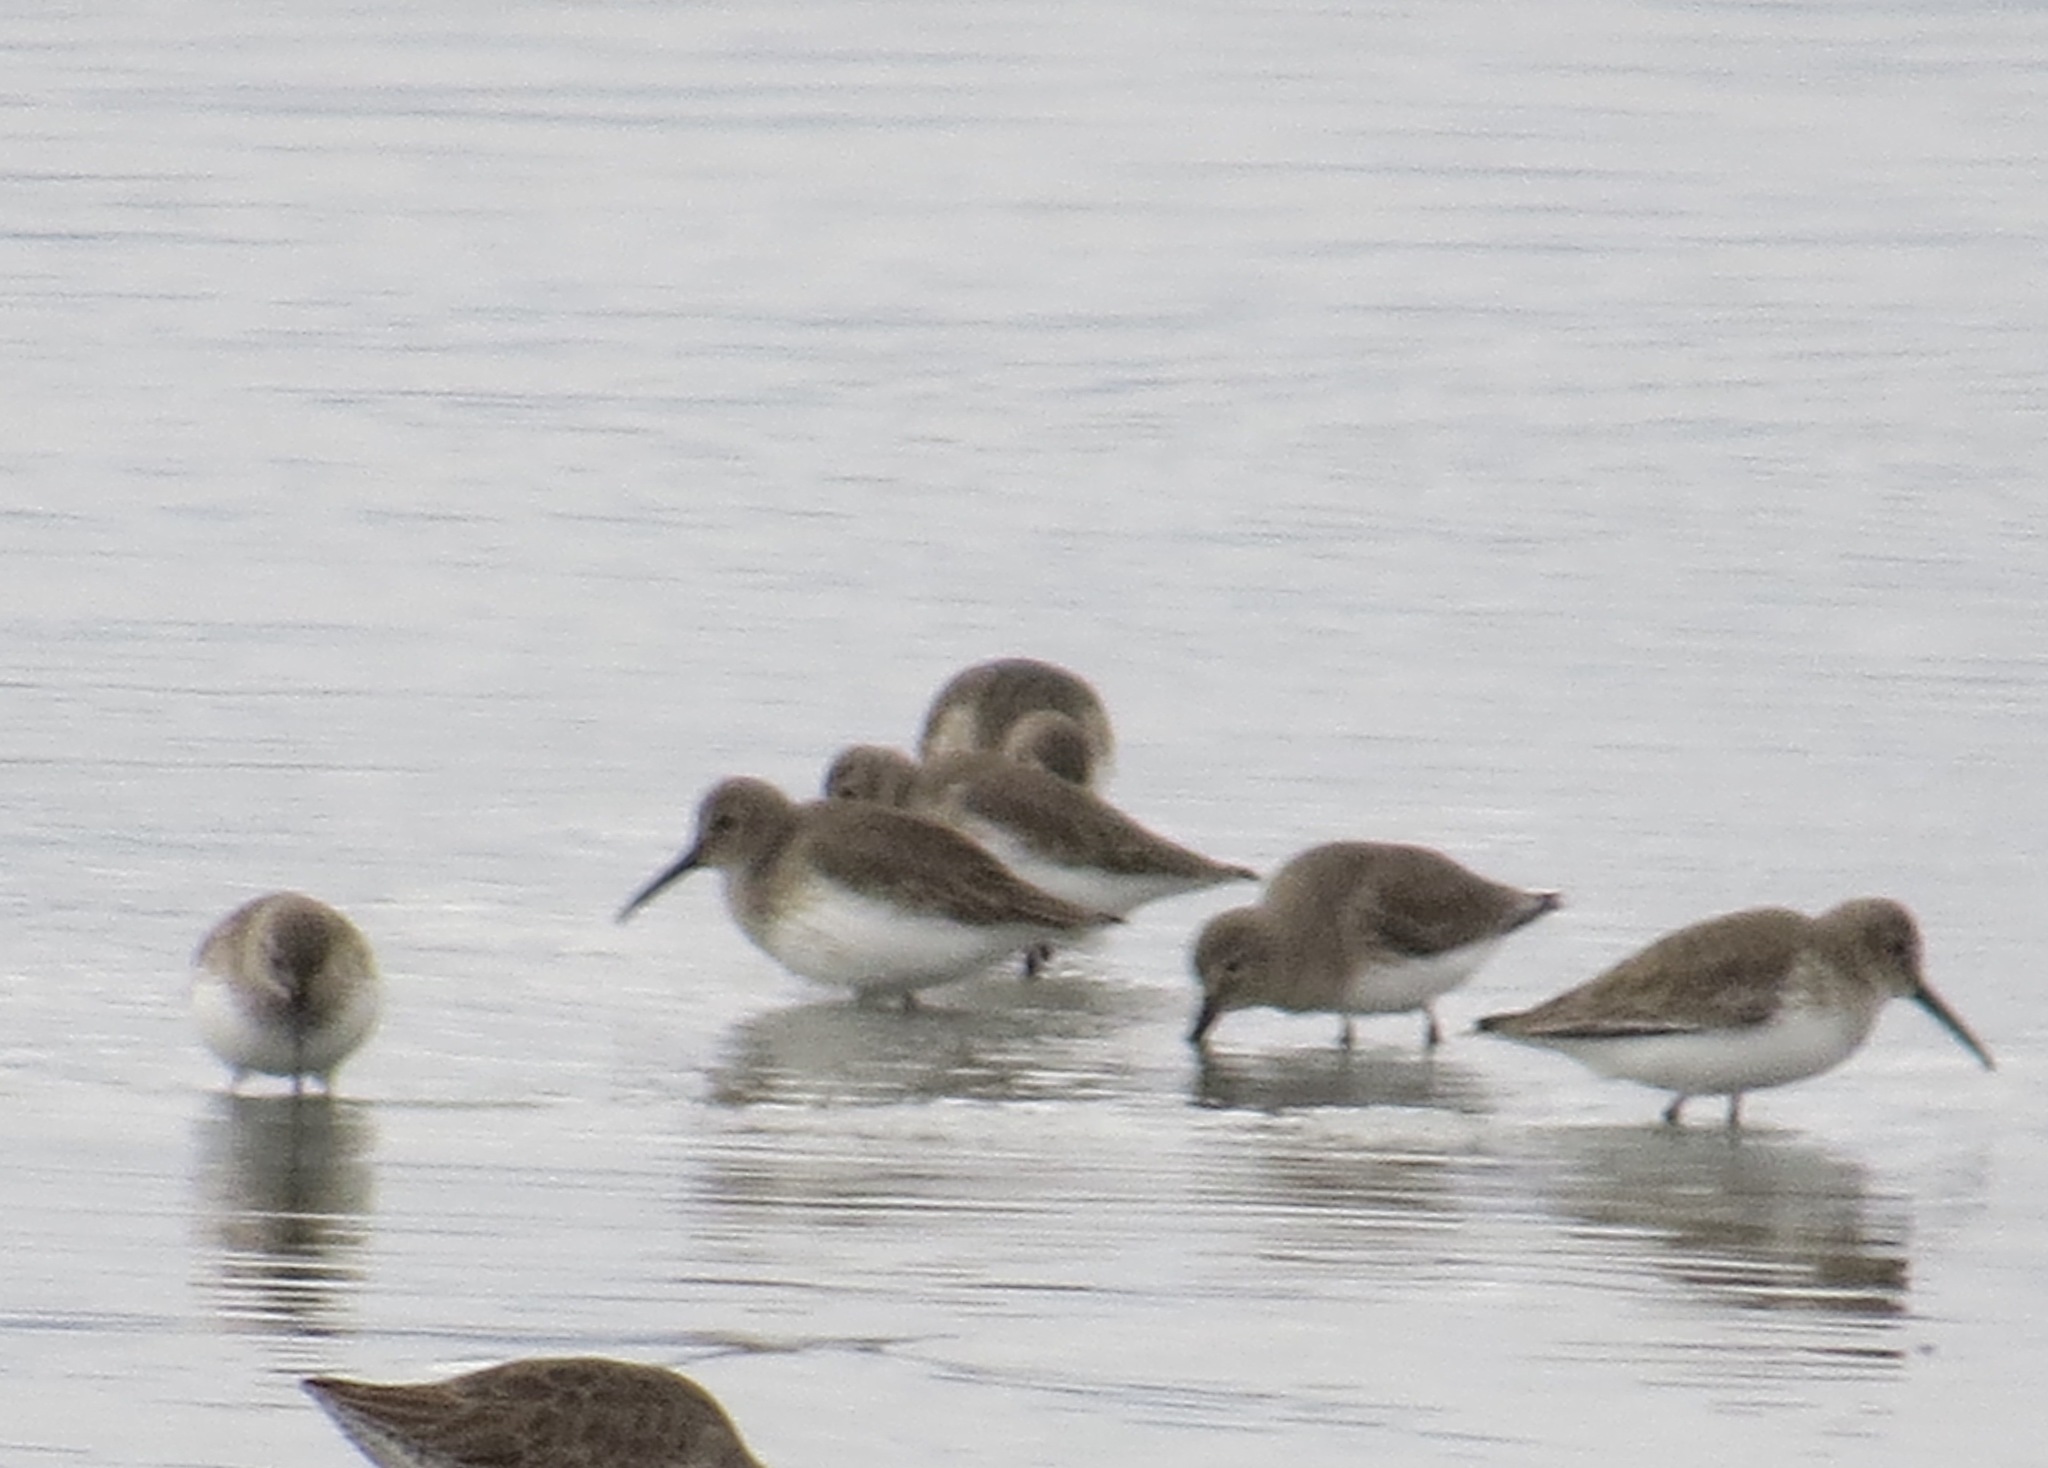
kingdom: Animalia
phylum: Chordata
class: Aves
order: Charadriiformes
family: Scolopacidae
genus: Calidris
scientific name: Calidris alpina
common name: Dunlin
